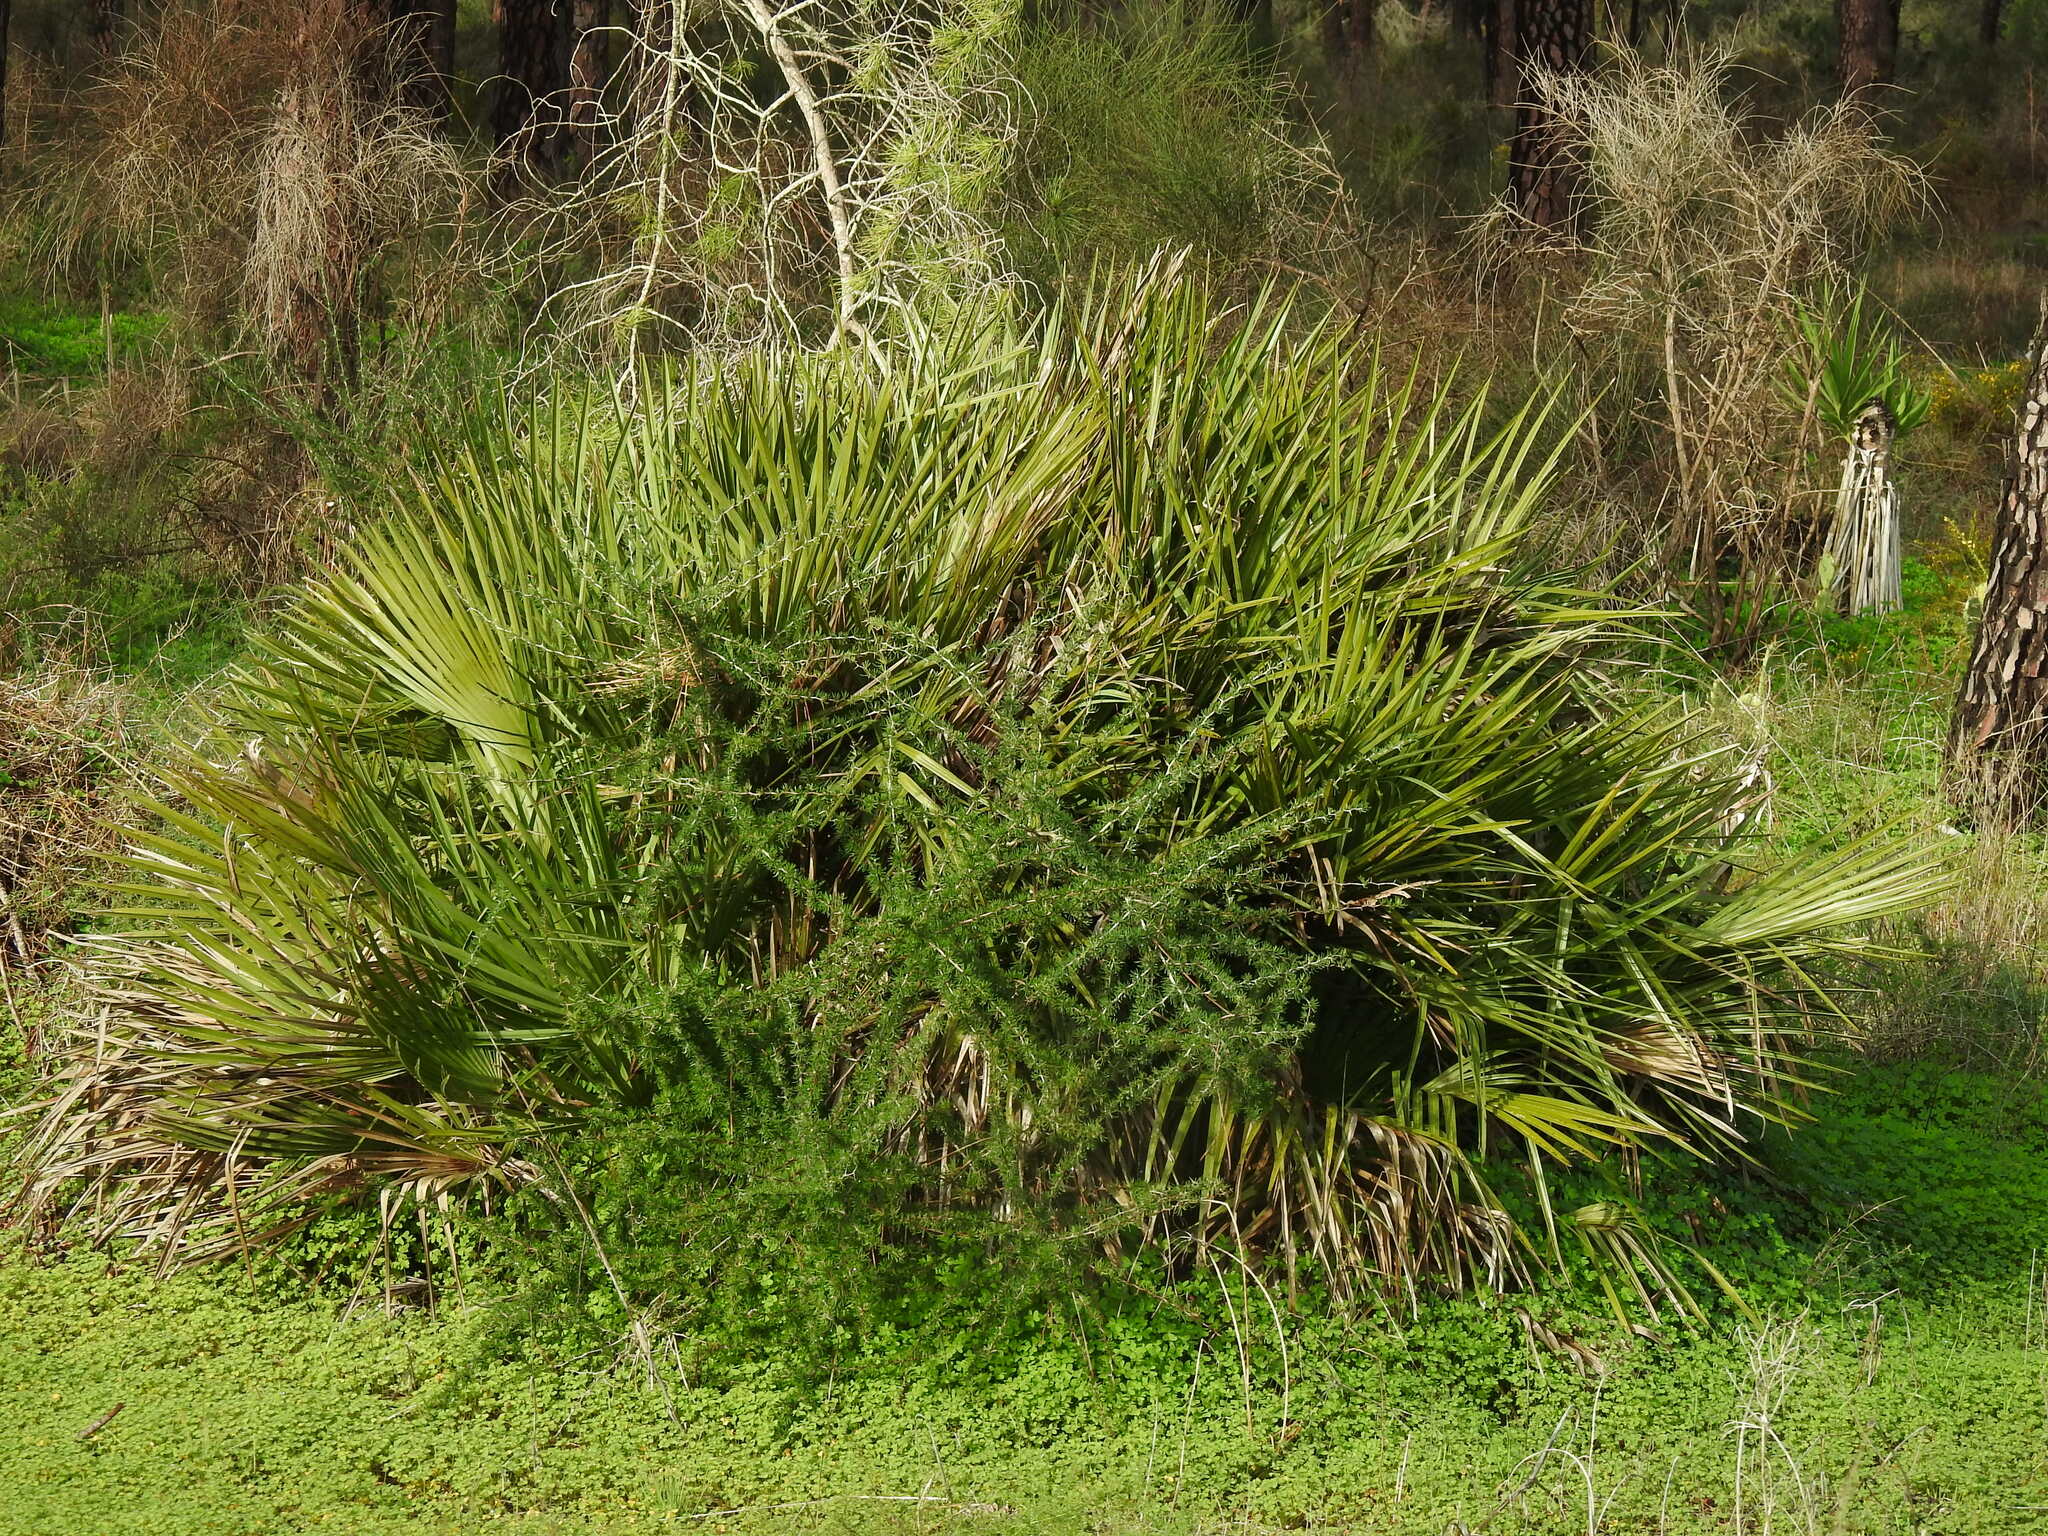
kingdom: Plantae
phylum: Tracheophyta
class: Liliopsida
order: Arecales
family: Arecaceae
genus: Chamaerops
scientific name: Chamaerops humilis
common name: Dwarf fan palm
